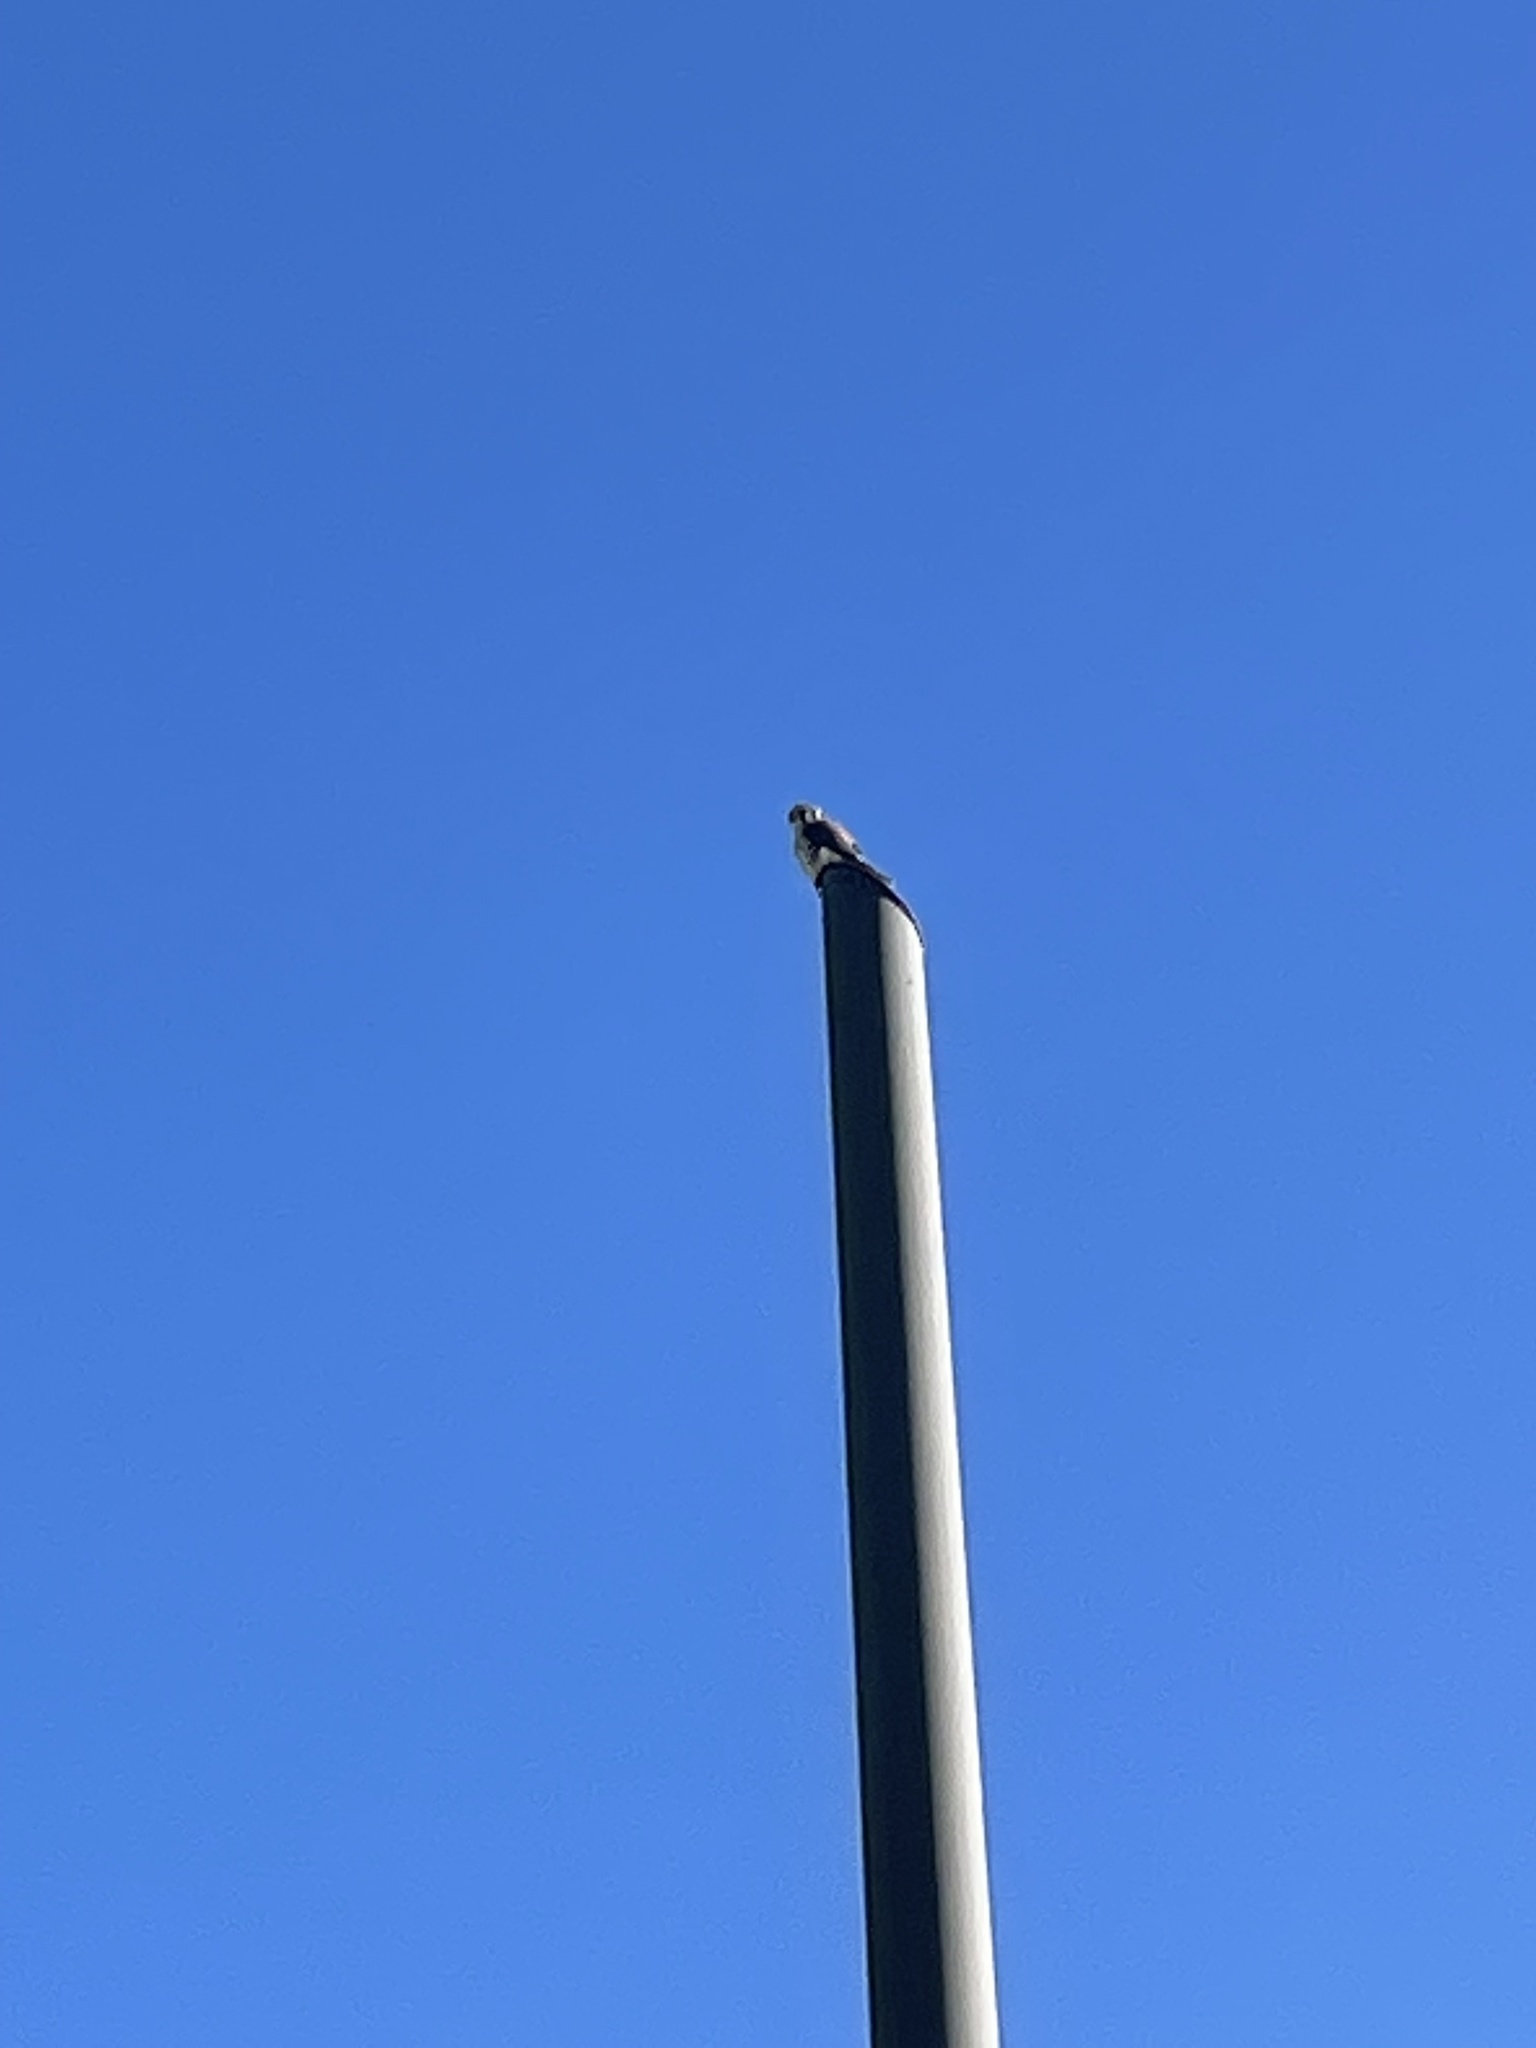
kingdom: Animalia
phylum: Chordata
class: Aves
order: Falconiformes
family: Falconidae
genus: Falco
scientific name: Falco sparverius
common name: American kestrel
